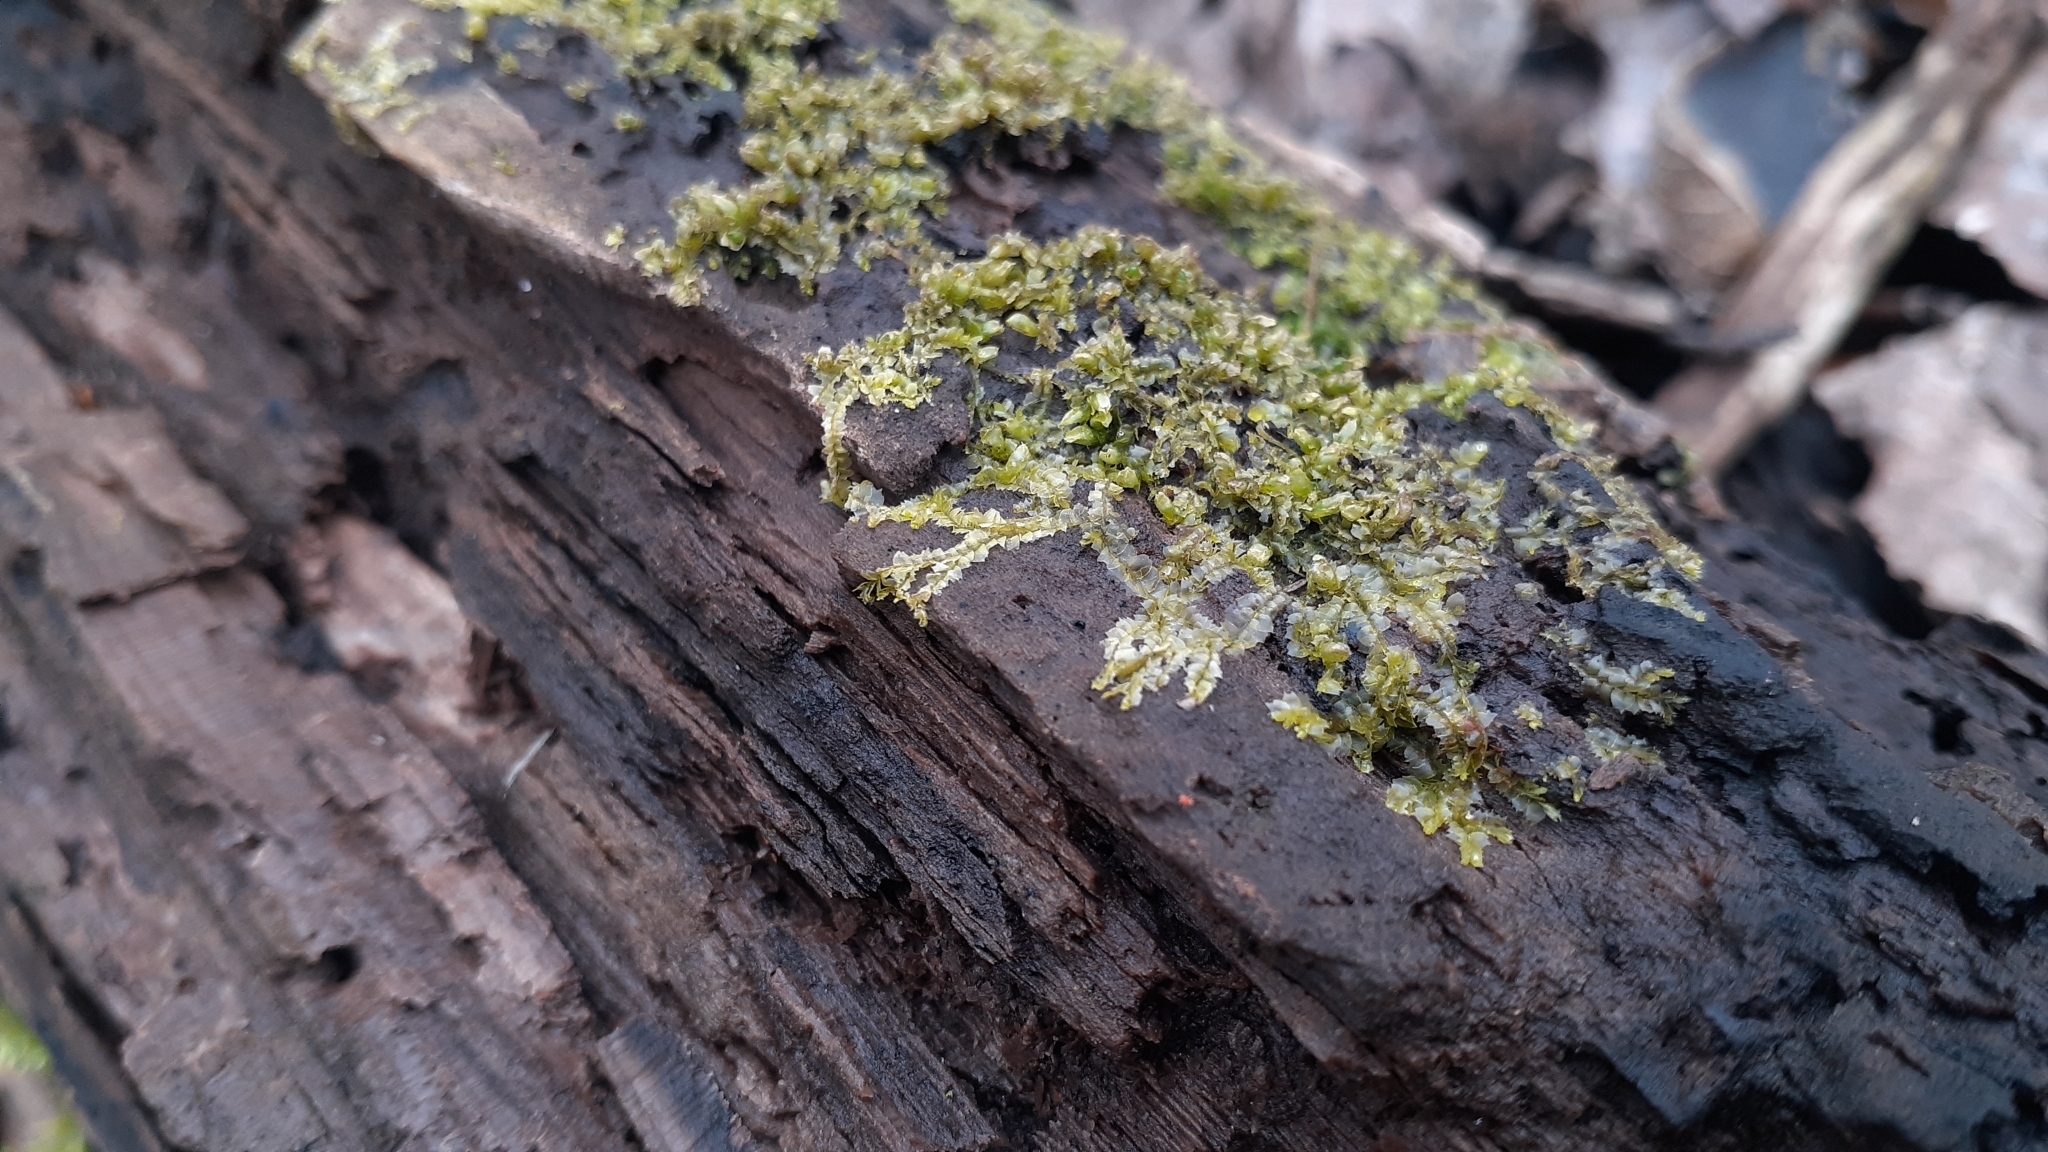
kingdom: Plantae
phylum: Marchantiophyta
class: Jungermanniopsida
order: Jungermanniales
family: Lophocoleaceae
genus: Lophocolea
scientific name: Lophocolea heterophylla
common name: Variable-leaved crestwort
